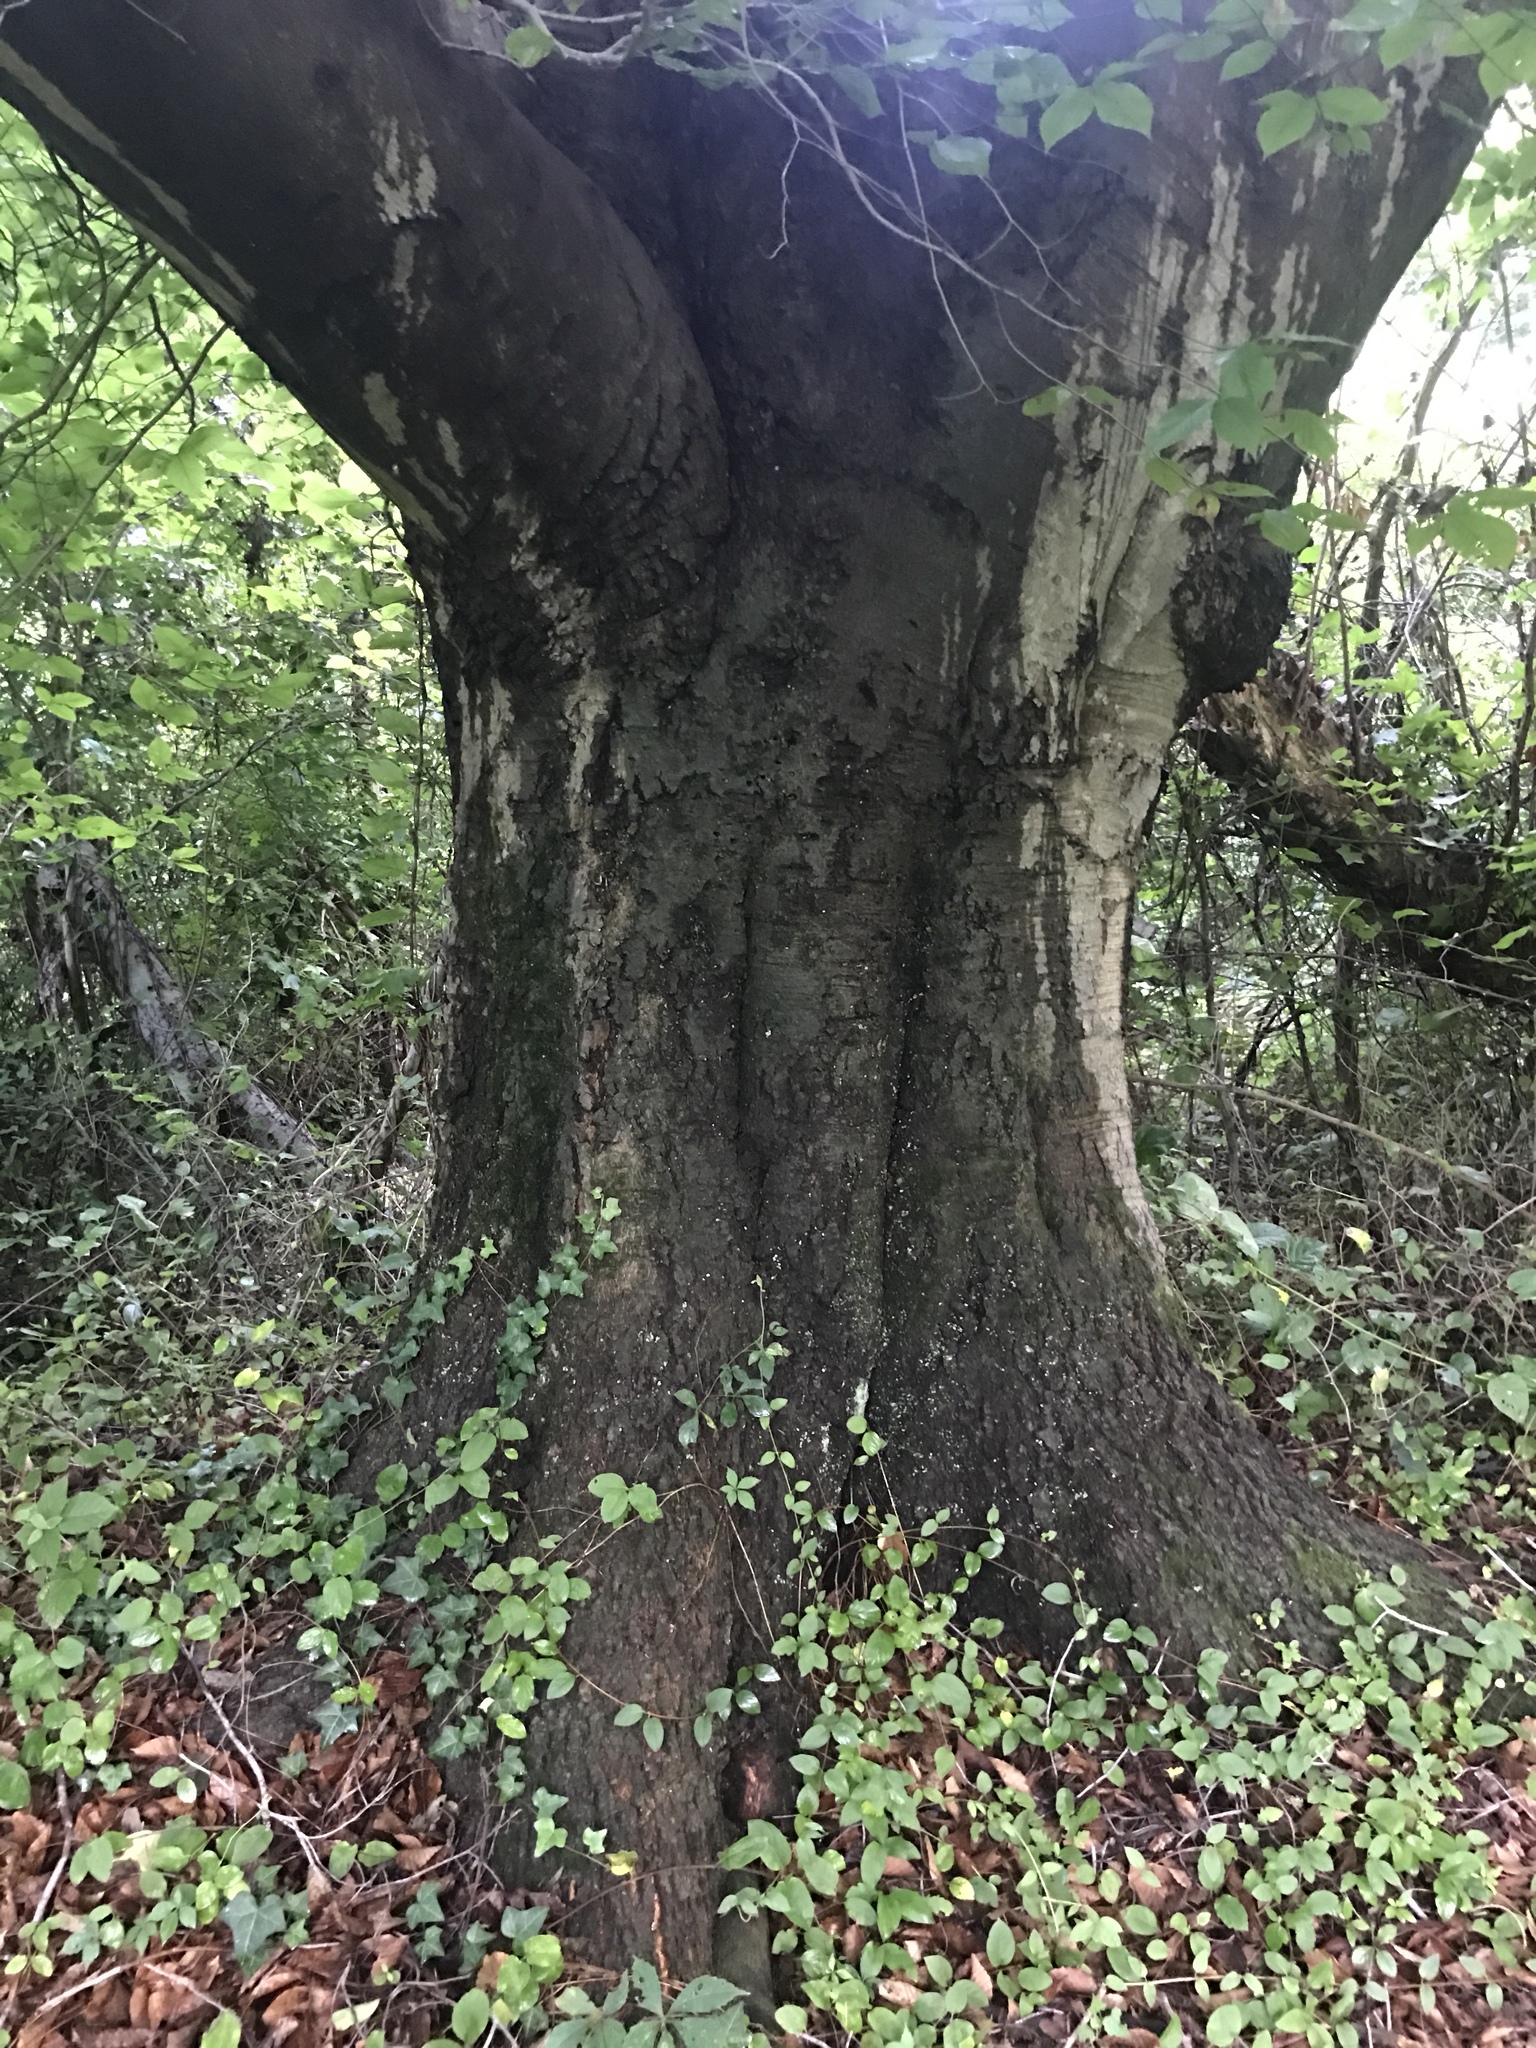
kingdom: Plantae
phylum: Tracheophyta
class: Magnoliopsida
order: Fagales
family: Fagaceae
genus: Fagus
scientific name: Fagus grandifolia
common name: American beech
